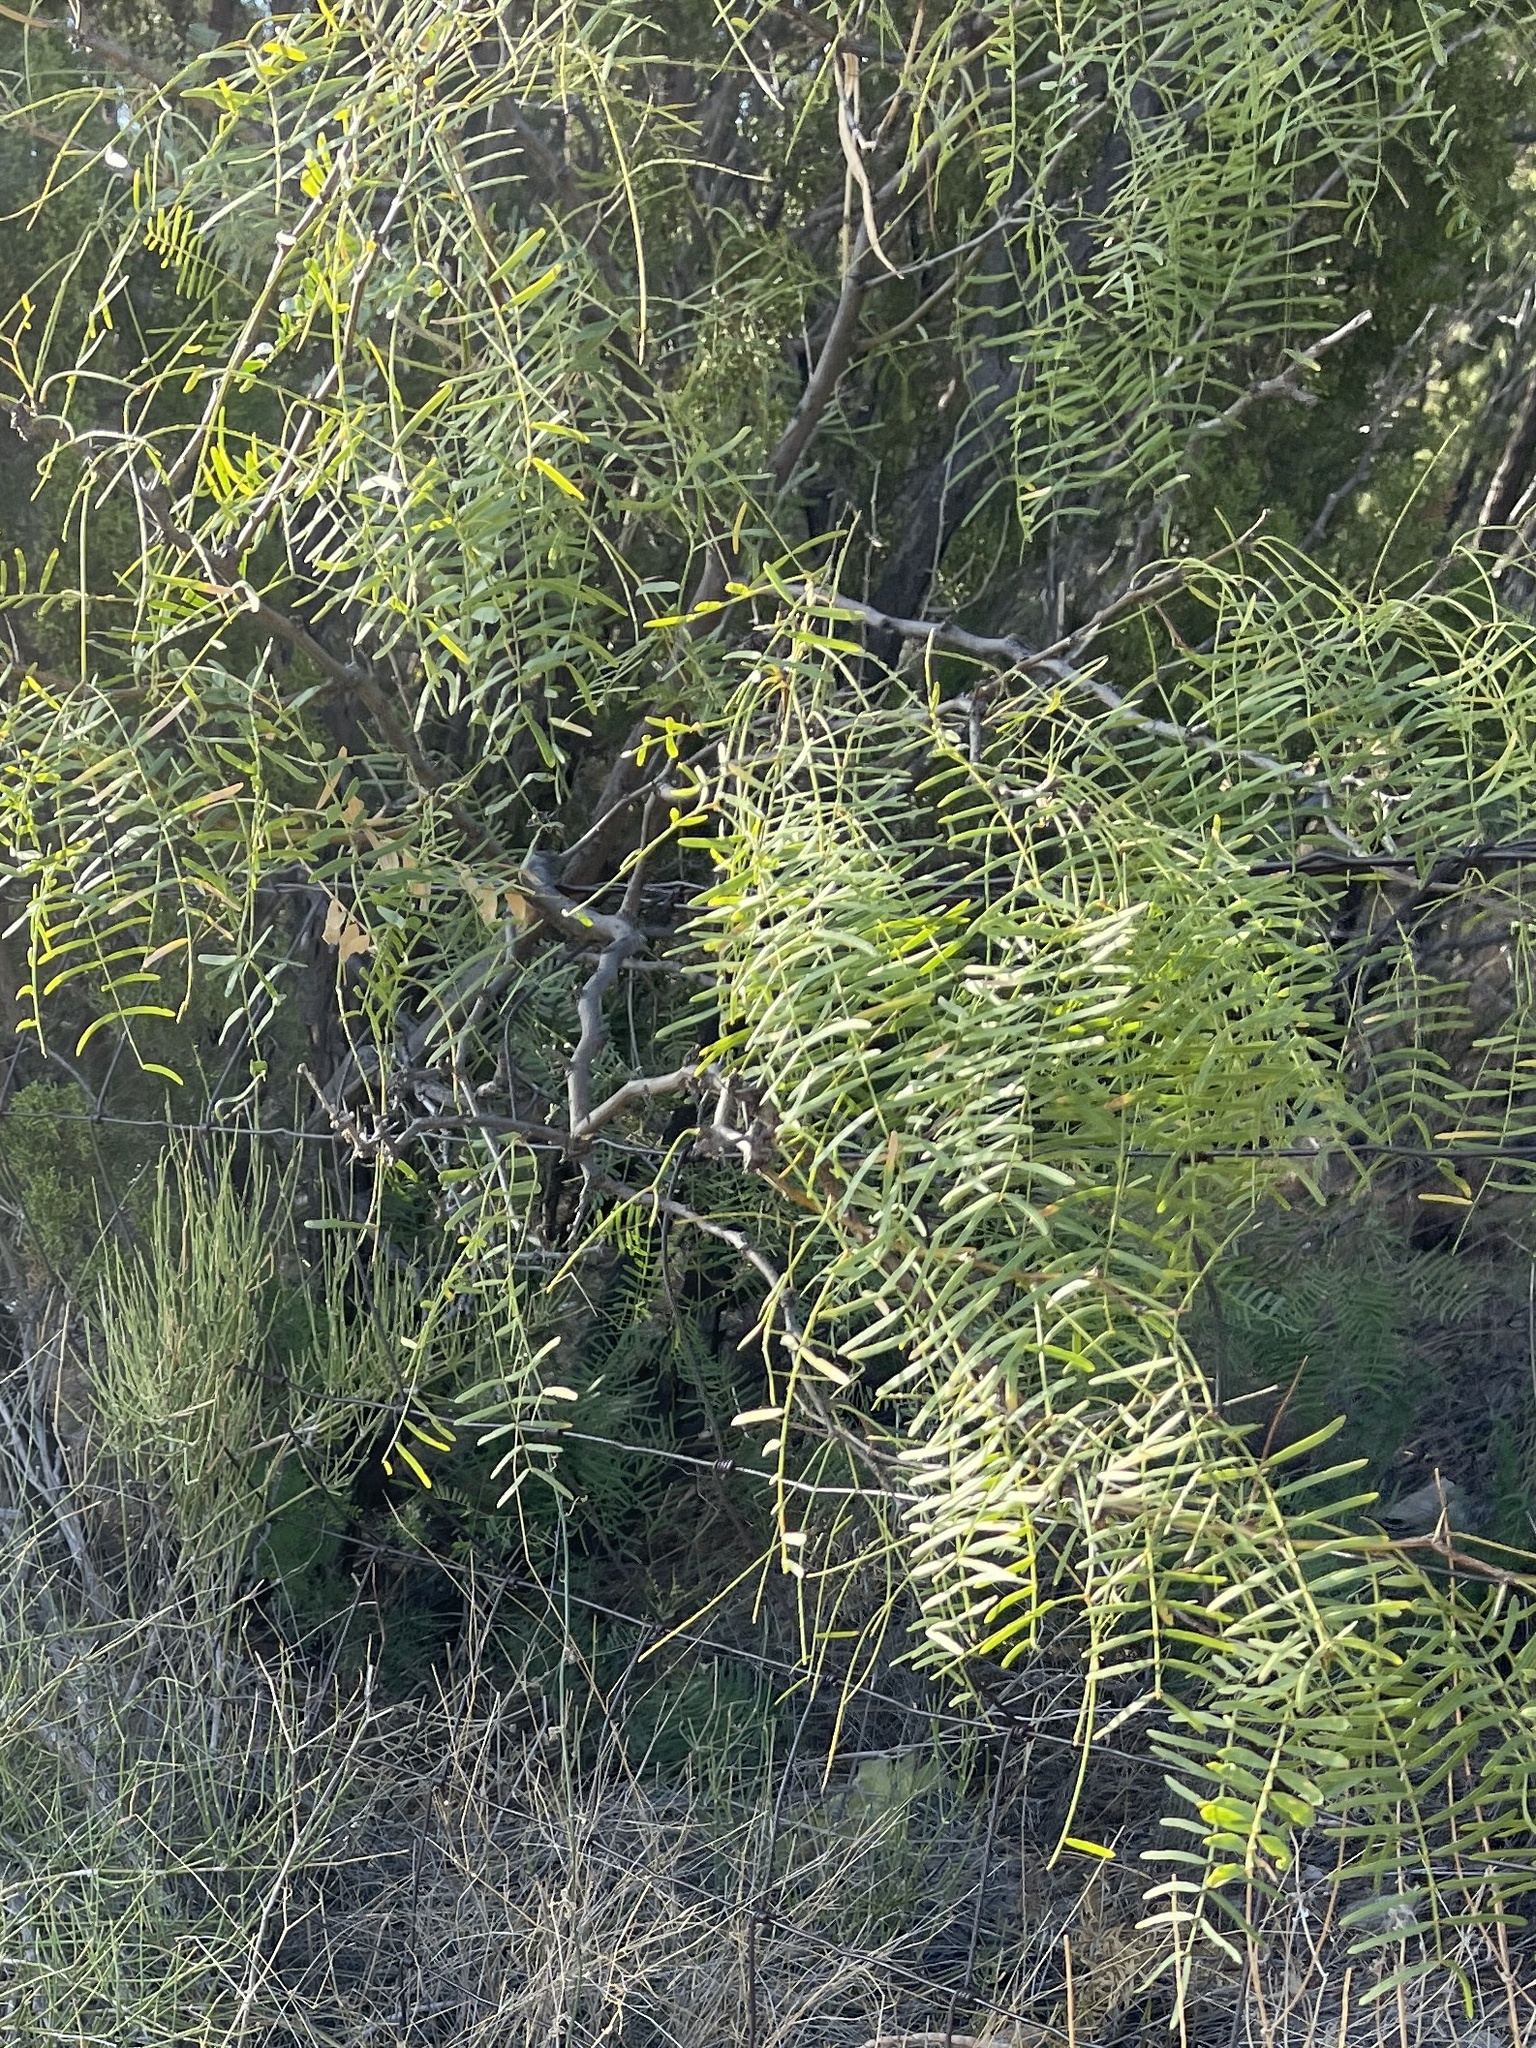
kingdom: Plantae
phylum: Tracheophyta
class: Magnoliopsida
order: Fabales
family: Fabaceae
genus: Prosopis
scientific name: Prosopis glandulosa
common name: Honey mesquite
